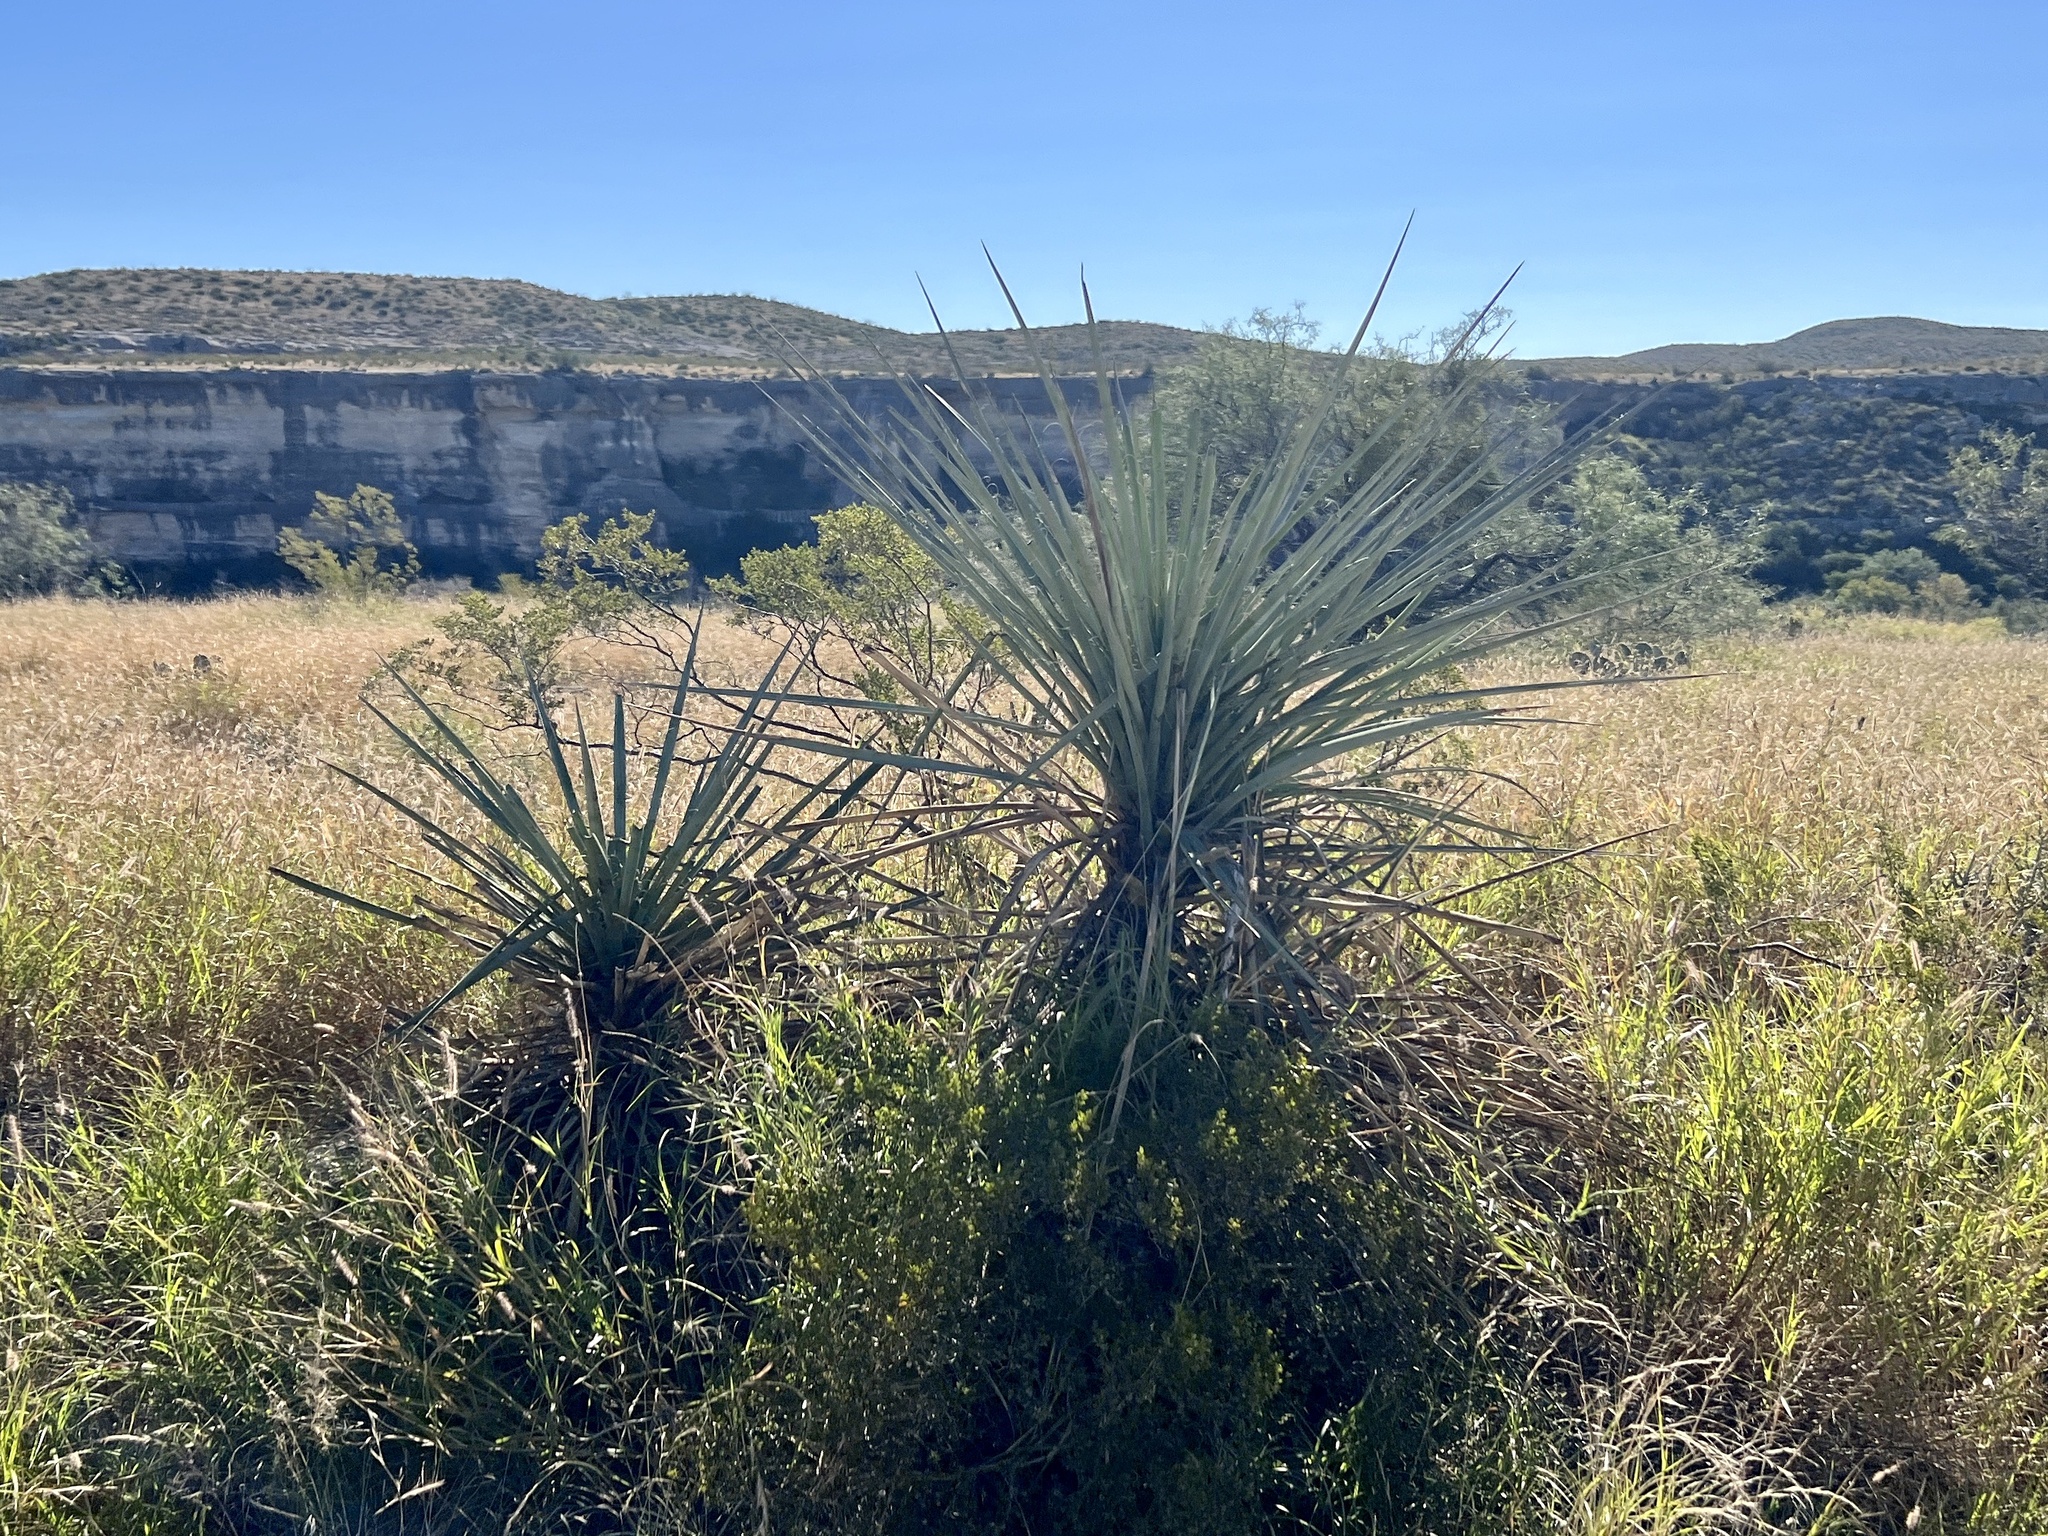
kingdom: Plantae
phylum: Tracheophyta
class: Liliopsida
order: Asparagales
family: Asparagaceae
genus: Yucca
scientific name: Yucca treculiana
